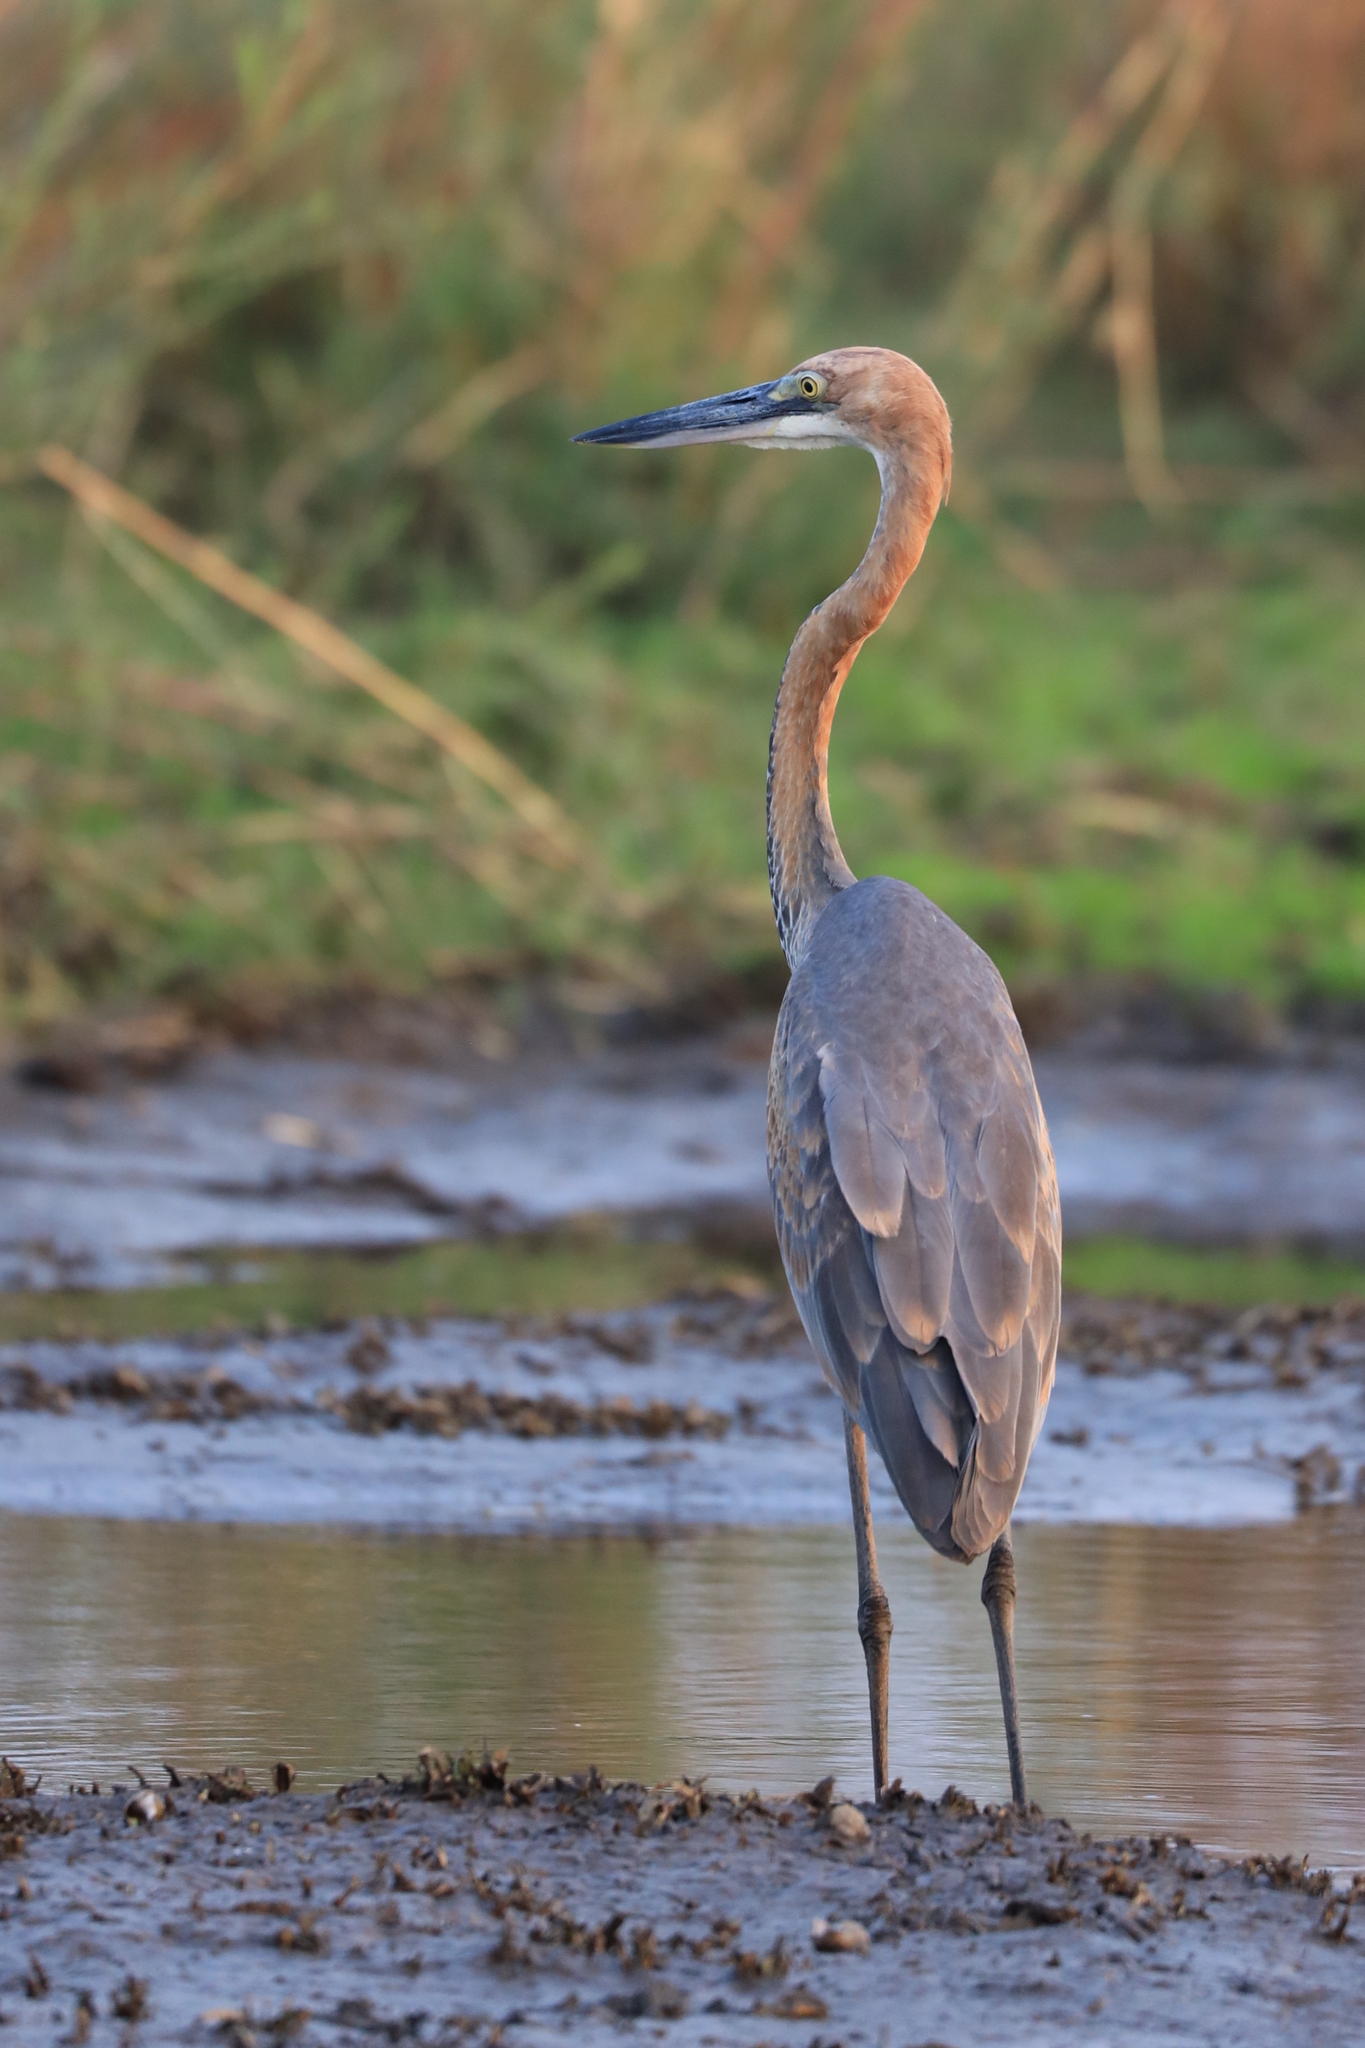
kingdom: Animalia
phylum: Chordata
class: Aves
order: Pelecaniformes
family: Ardeidae
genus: Ardea
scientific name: Ardea goliath
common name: Goliath heron
